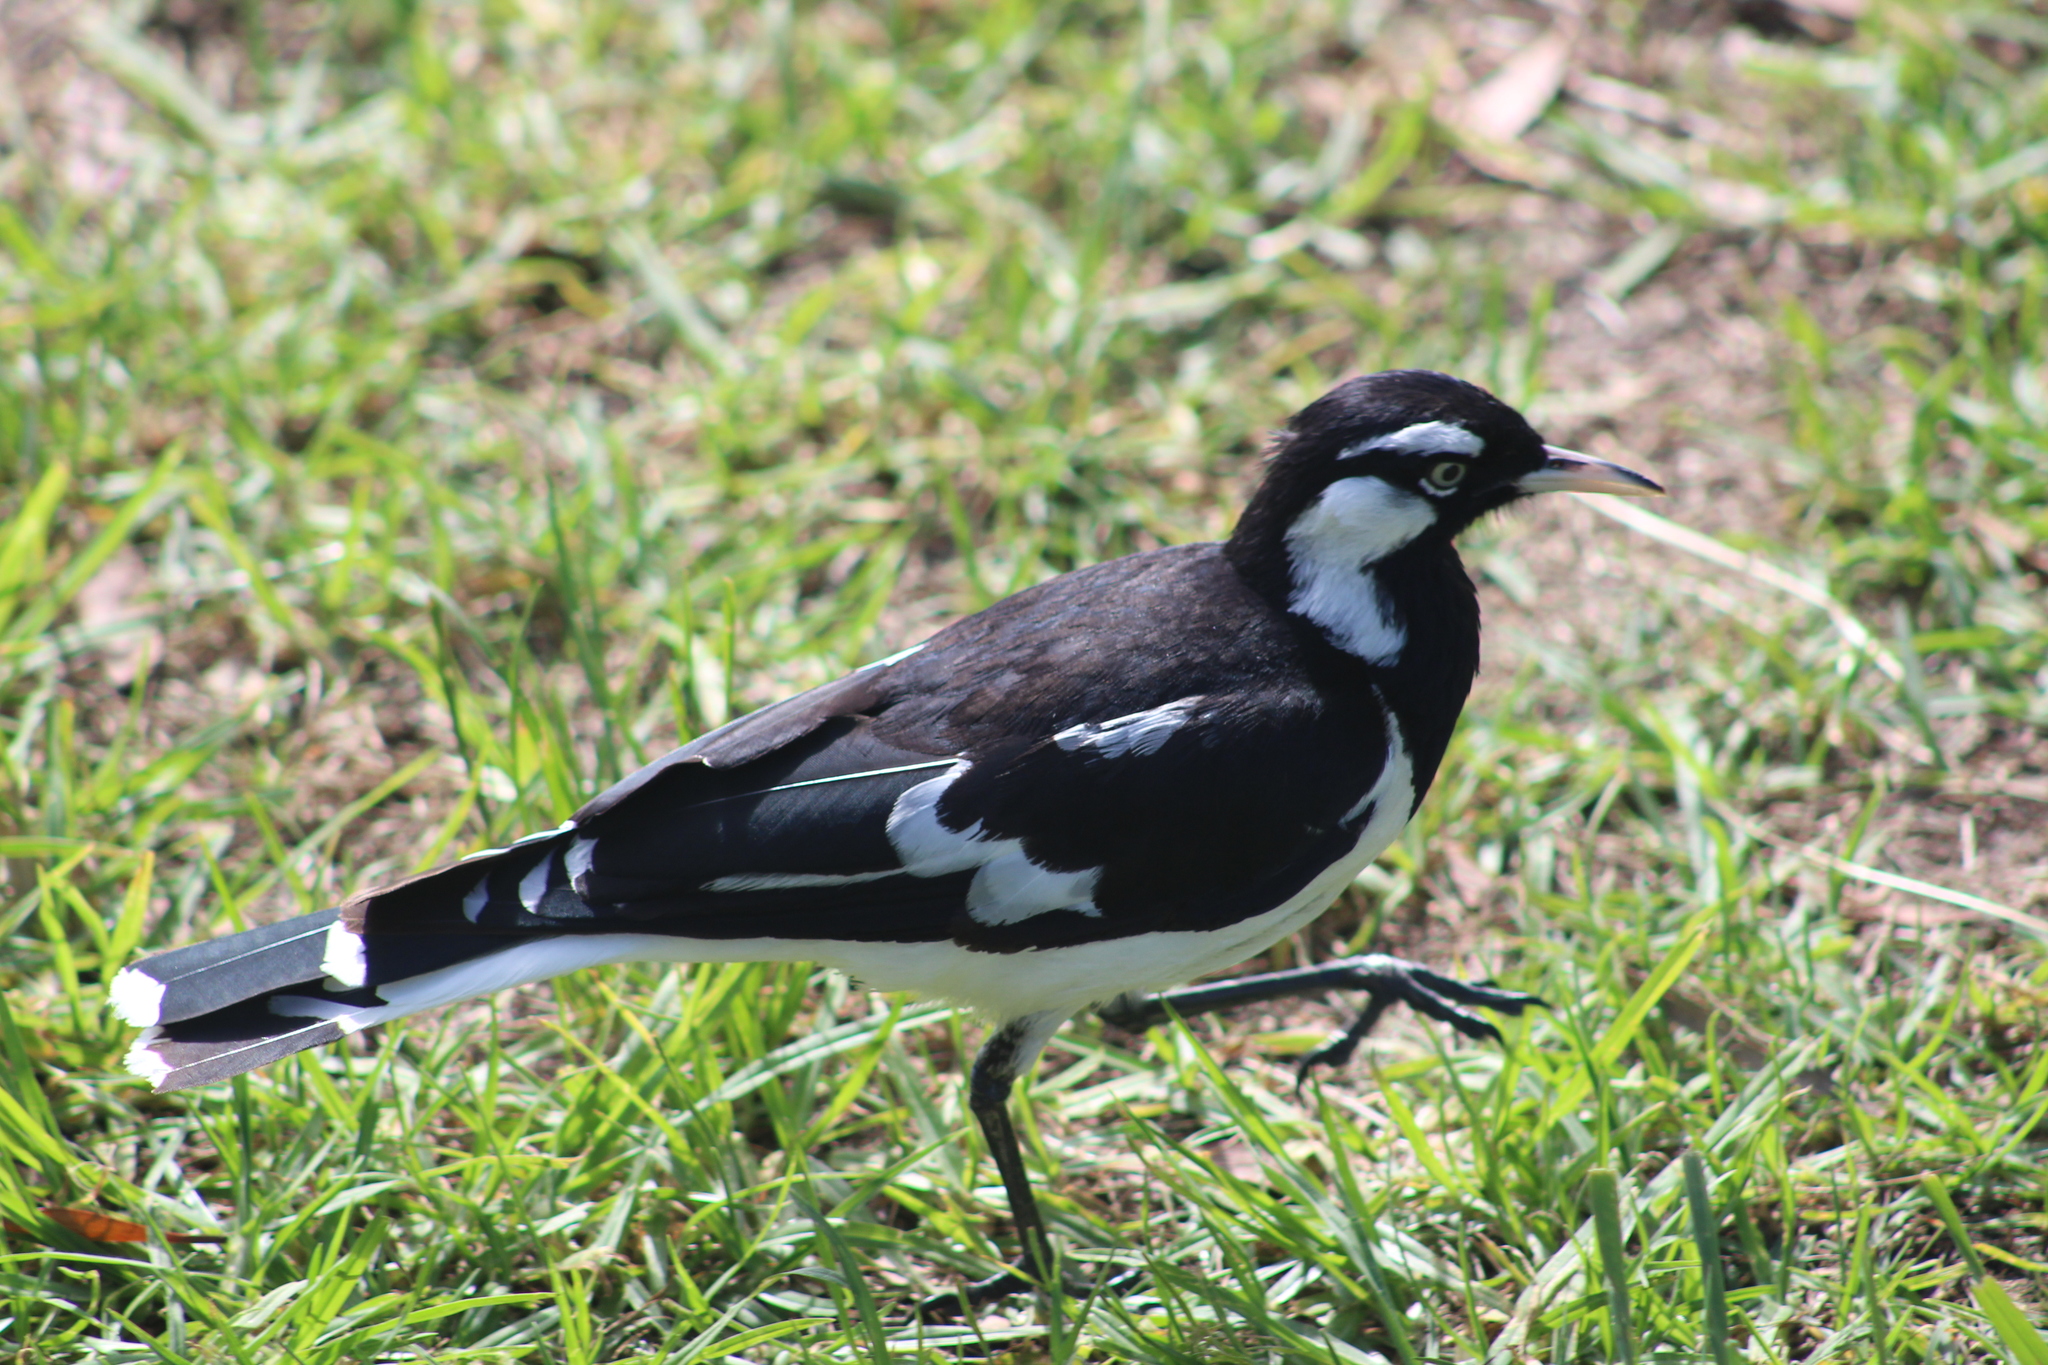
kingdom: Animalia
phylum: Chordata
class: Aves
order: Passeriformes
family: Monarchidae
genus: Grallina
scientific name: Grallina cyanoleuca
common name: Magpie-lark
